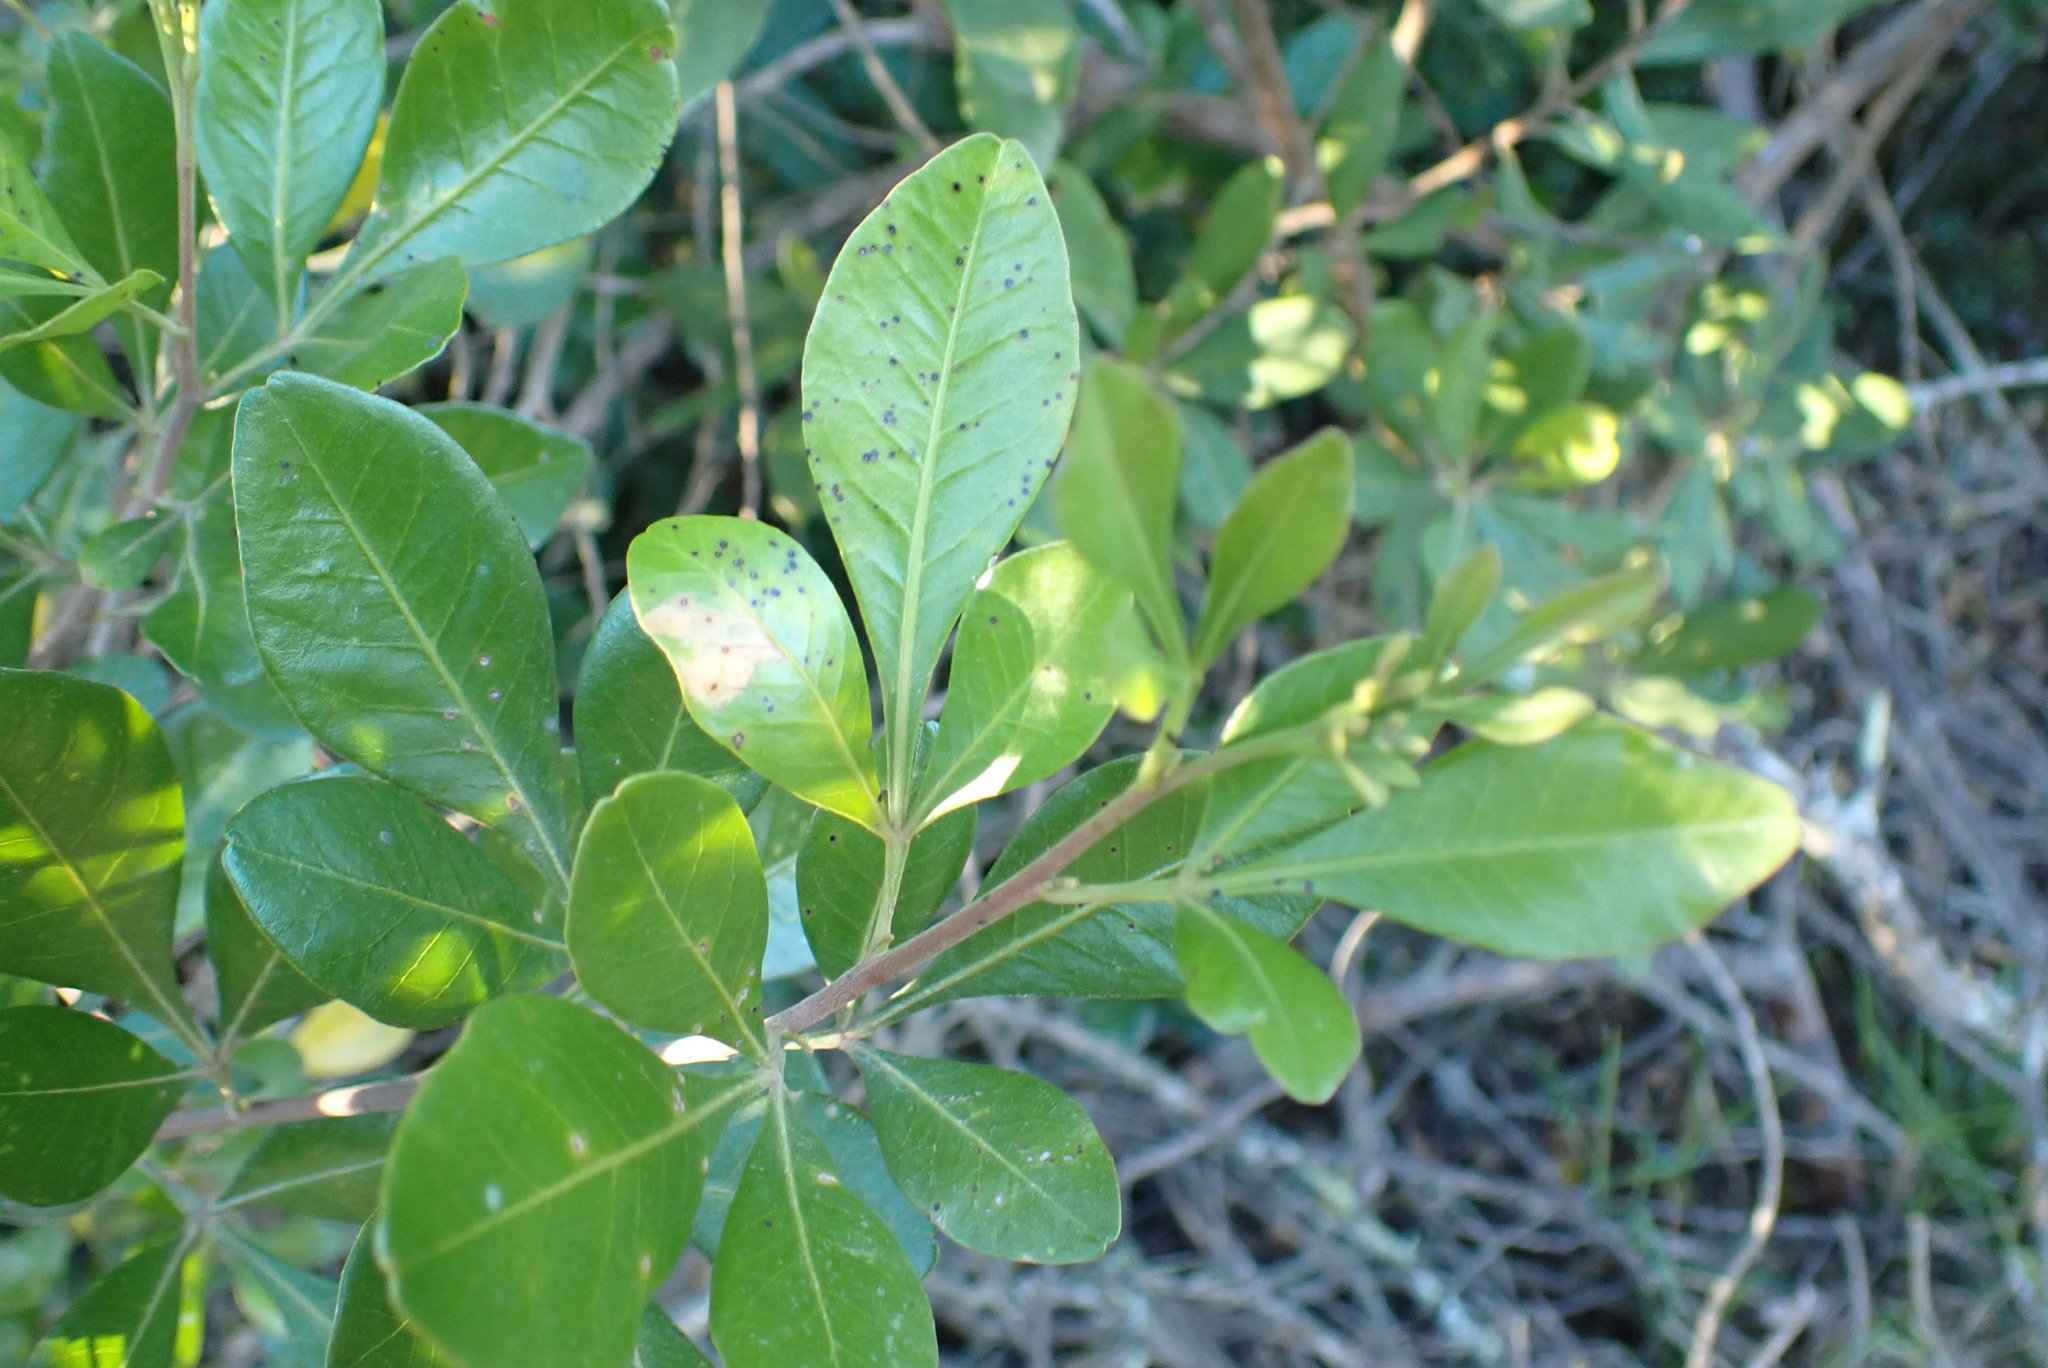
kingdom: Plantae
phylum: Tracheophyta
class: Magnoliopsida
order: Sapindales
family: Anacardiaceae
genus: Searsia
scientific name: Searsia lucida
